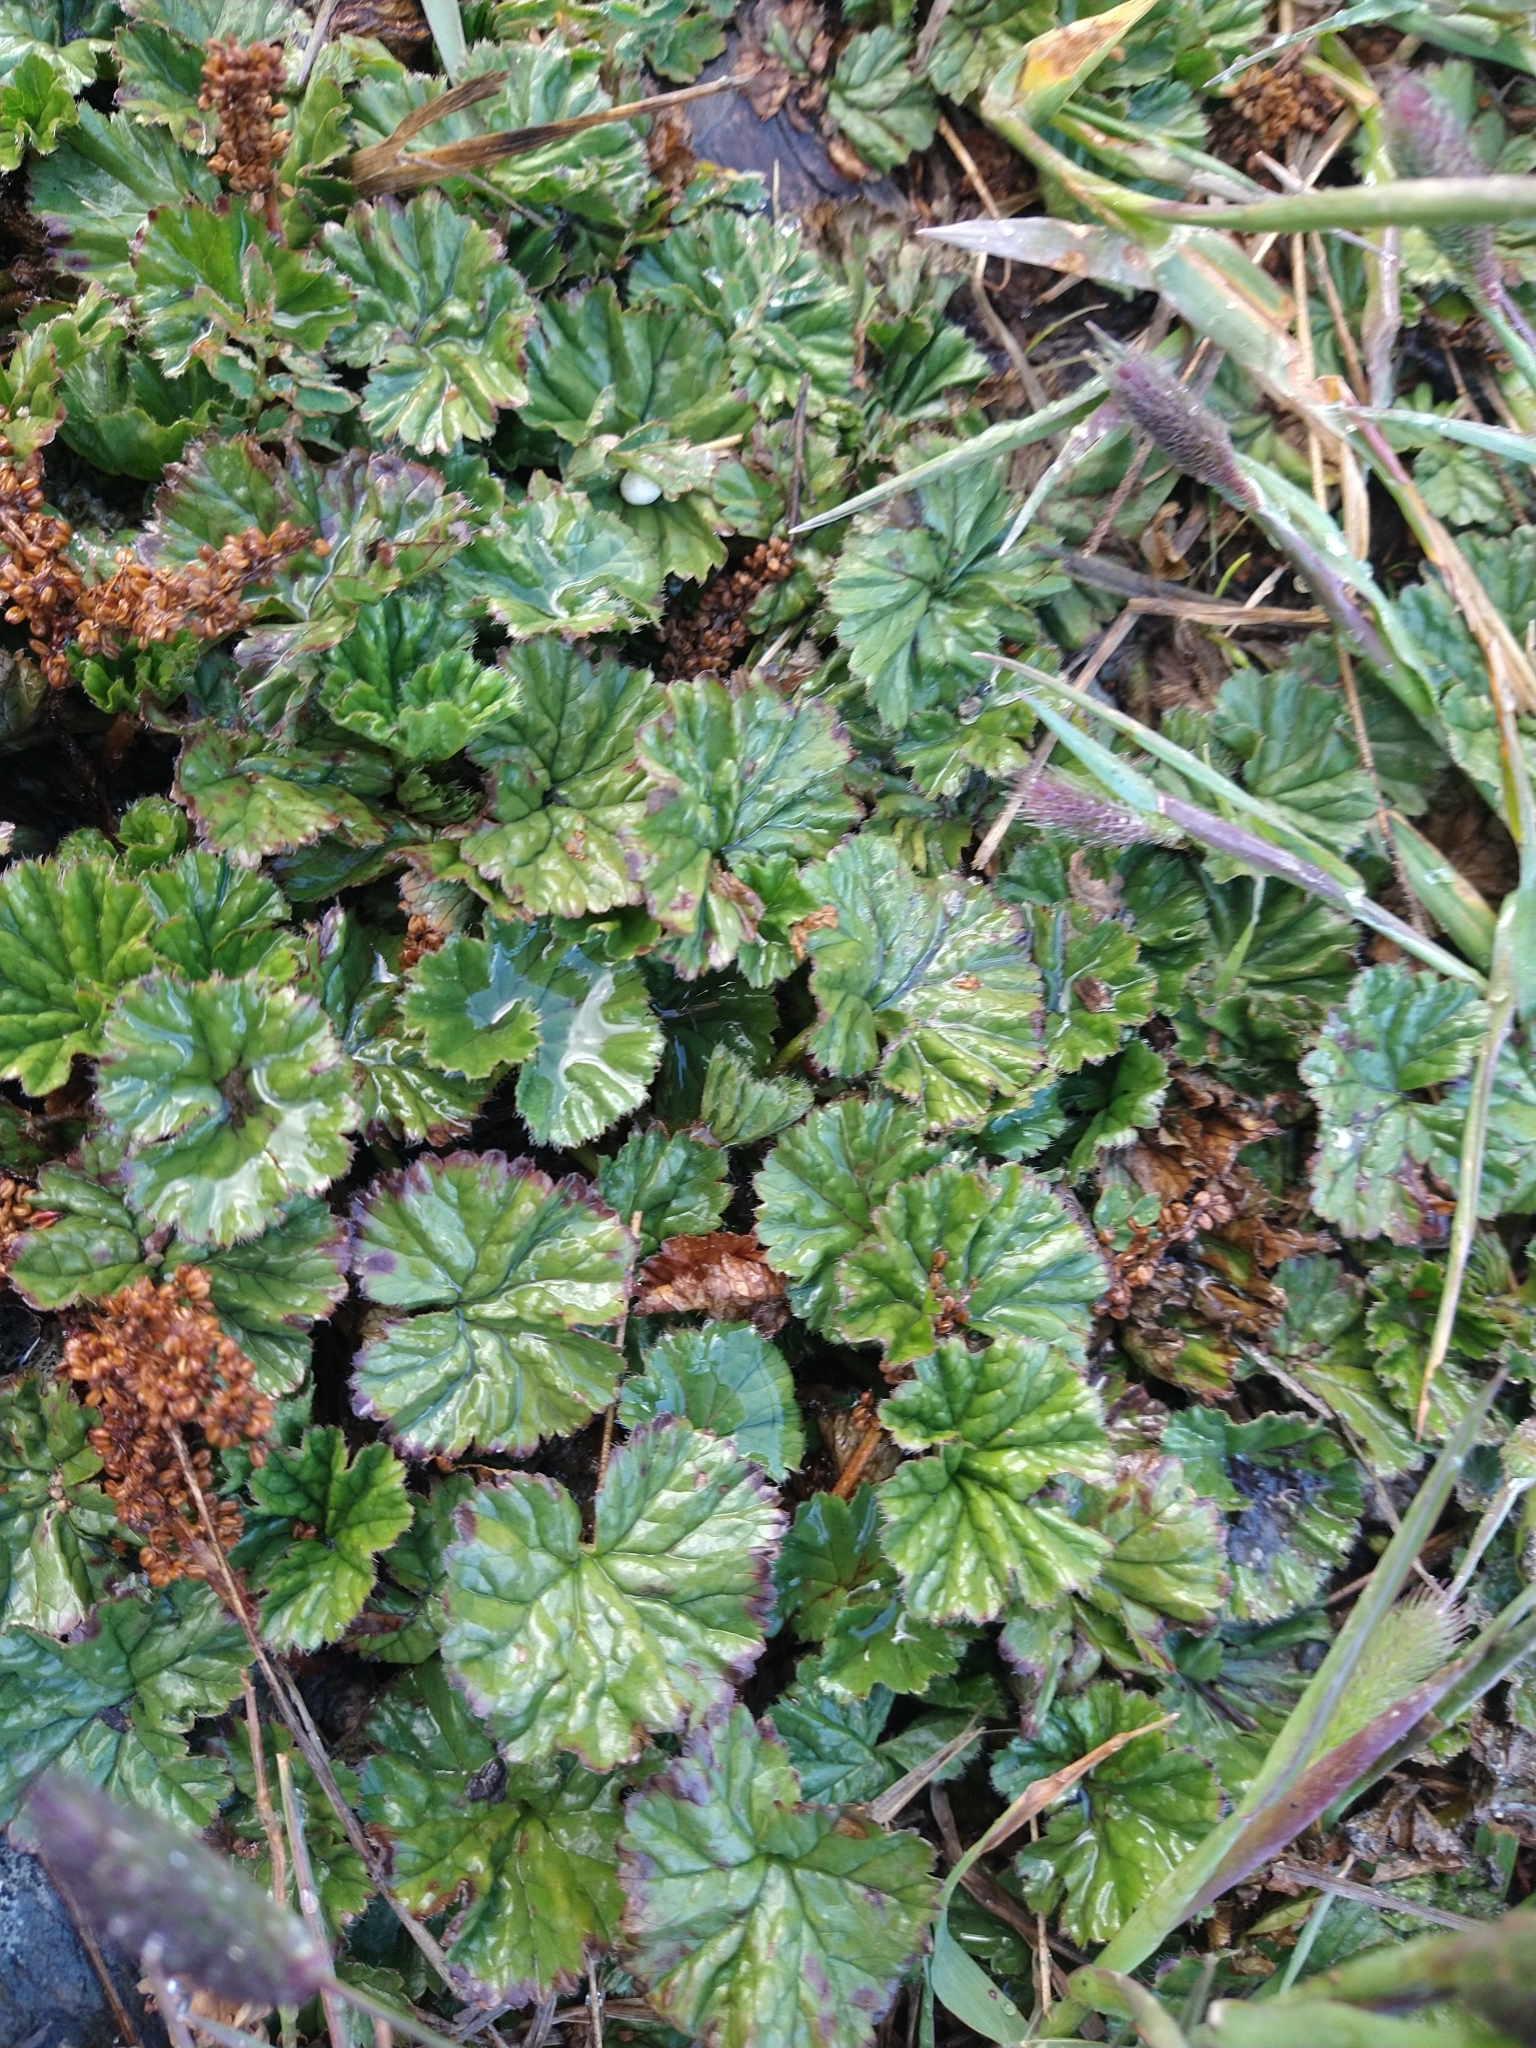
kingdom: Plantae
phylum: Tracheophyta
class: Magnoliopsida
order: Gunnerales
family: Gunneraceae
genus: Gunnera
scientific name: Gunnera magellanica
